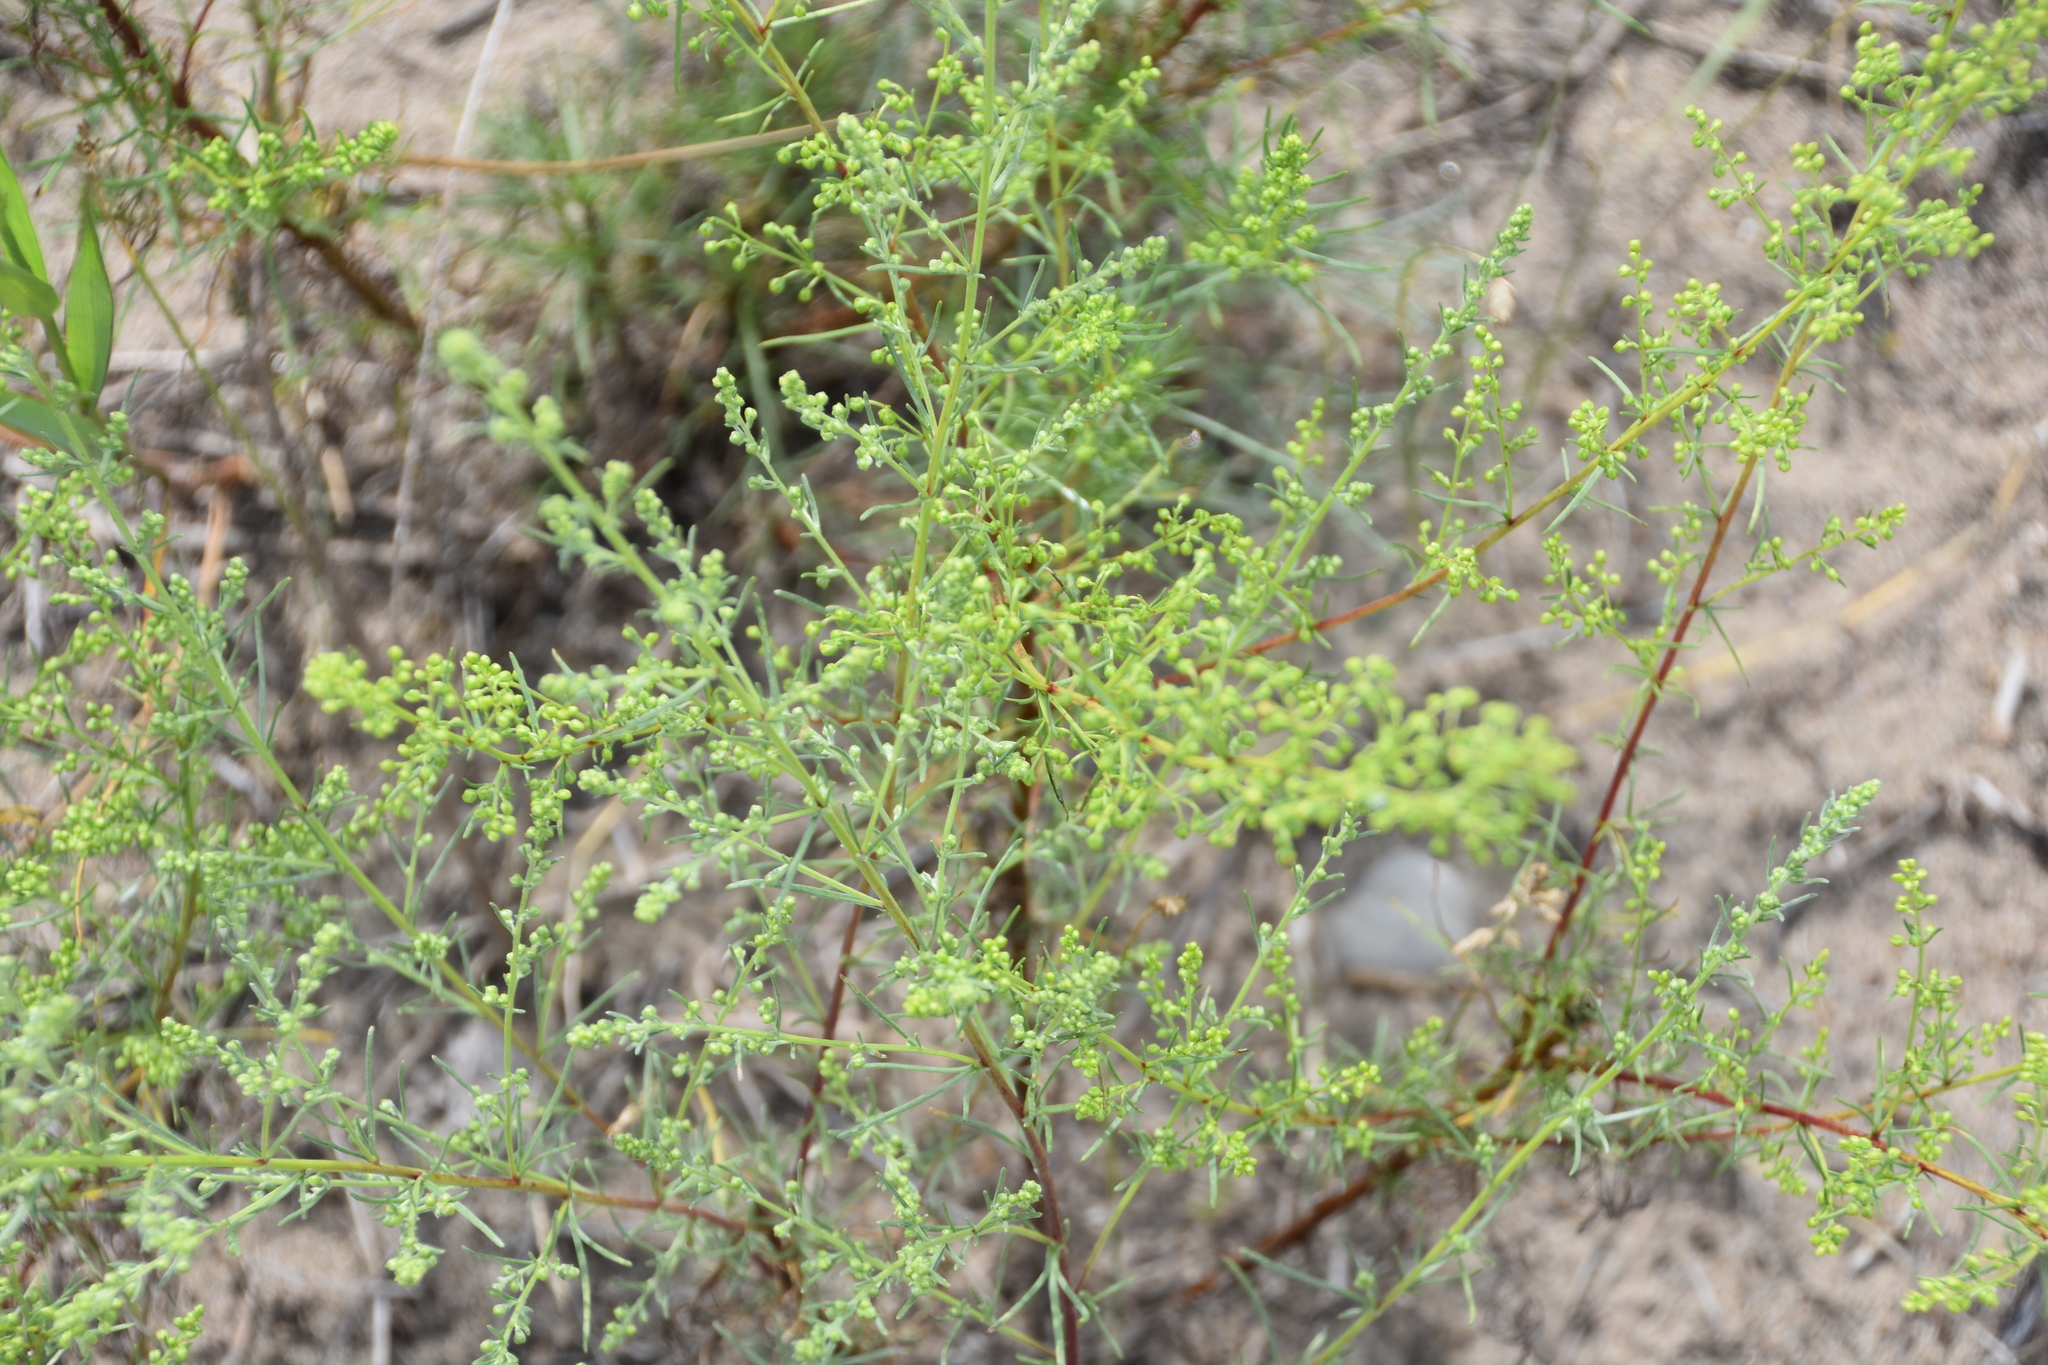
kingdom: Plantae
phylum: Tracheophyta
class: Magnoliopsida
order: Asterales
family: Asteraceae
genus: Artemisia
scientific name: Artemisia campestris
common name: Field wormwood
